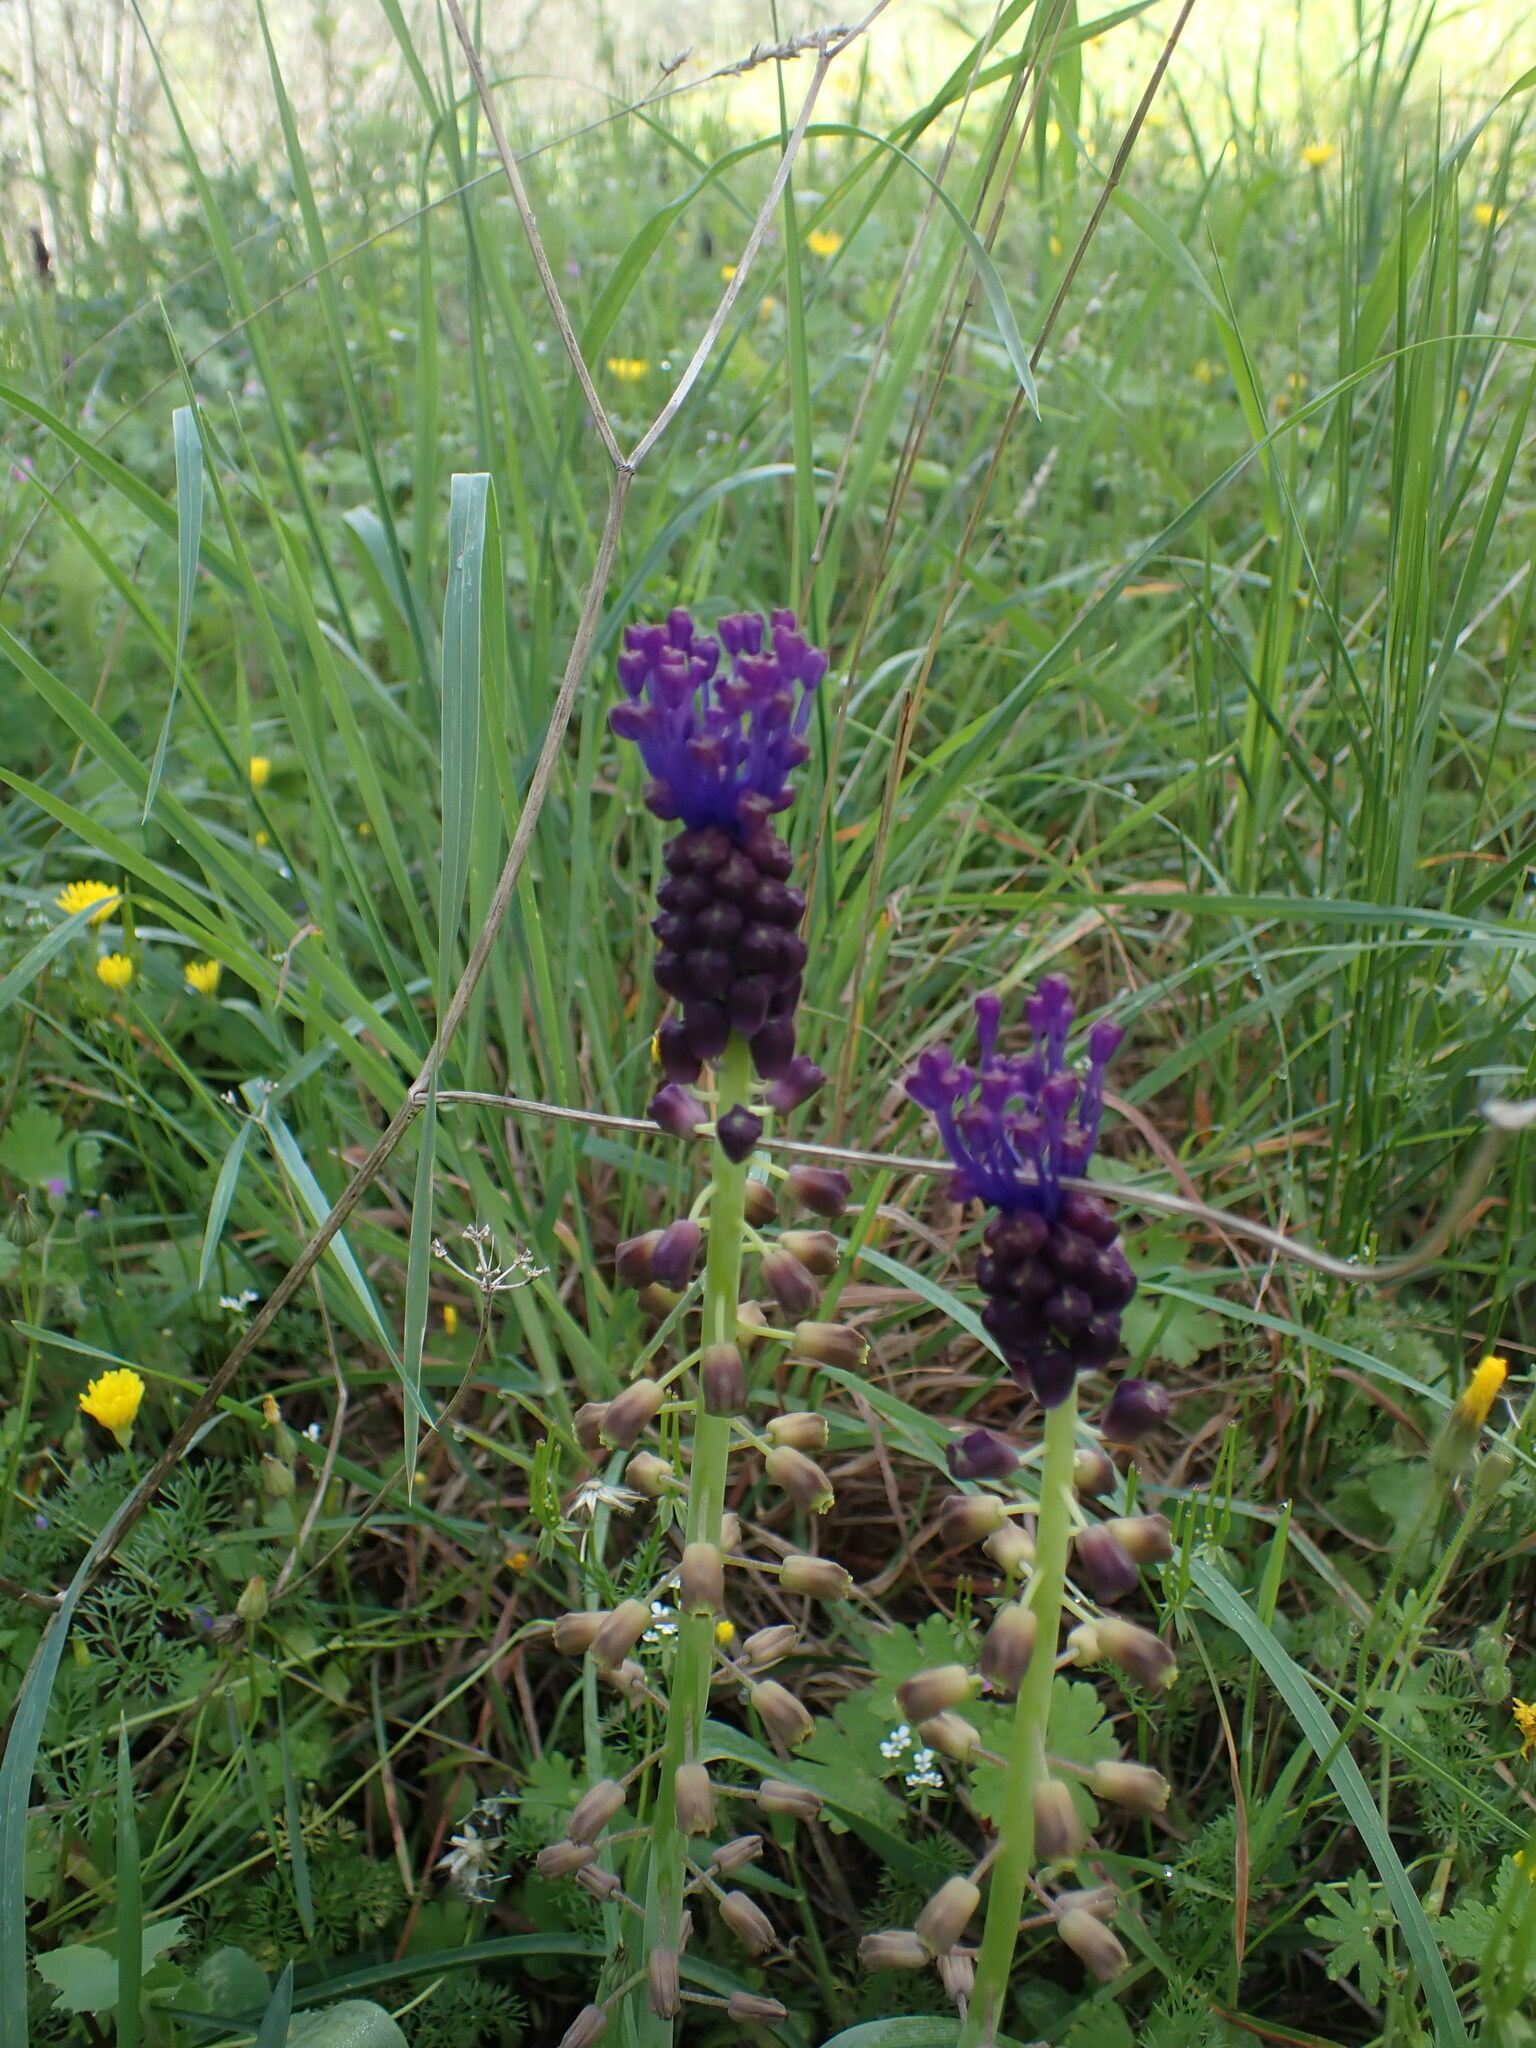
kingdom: Plantae
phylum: Tracheophyta
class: Liliopsida
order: Asparagales
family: Asparagaceae
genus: Muscari
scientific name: Muscari comosum
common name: Tassel hyacinth
